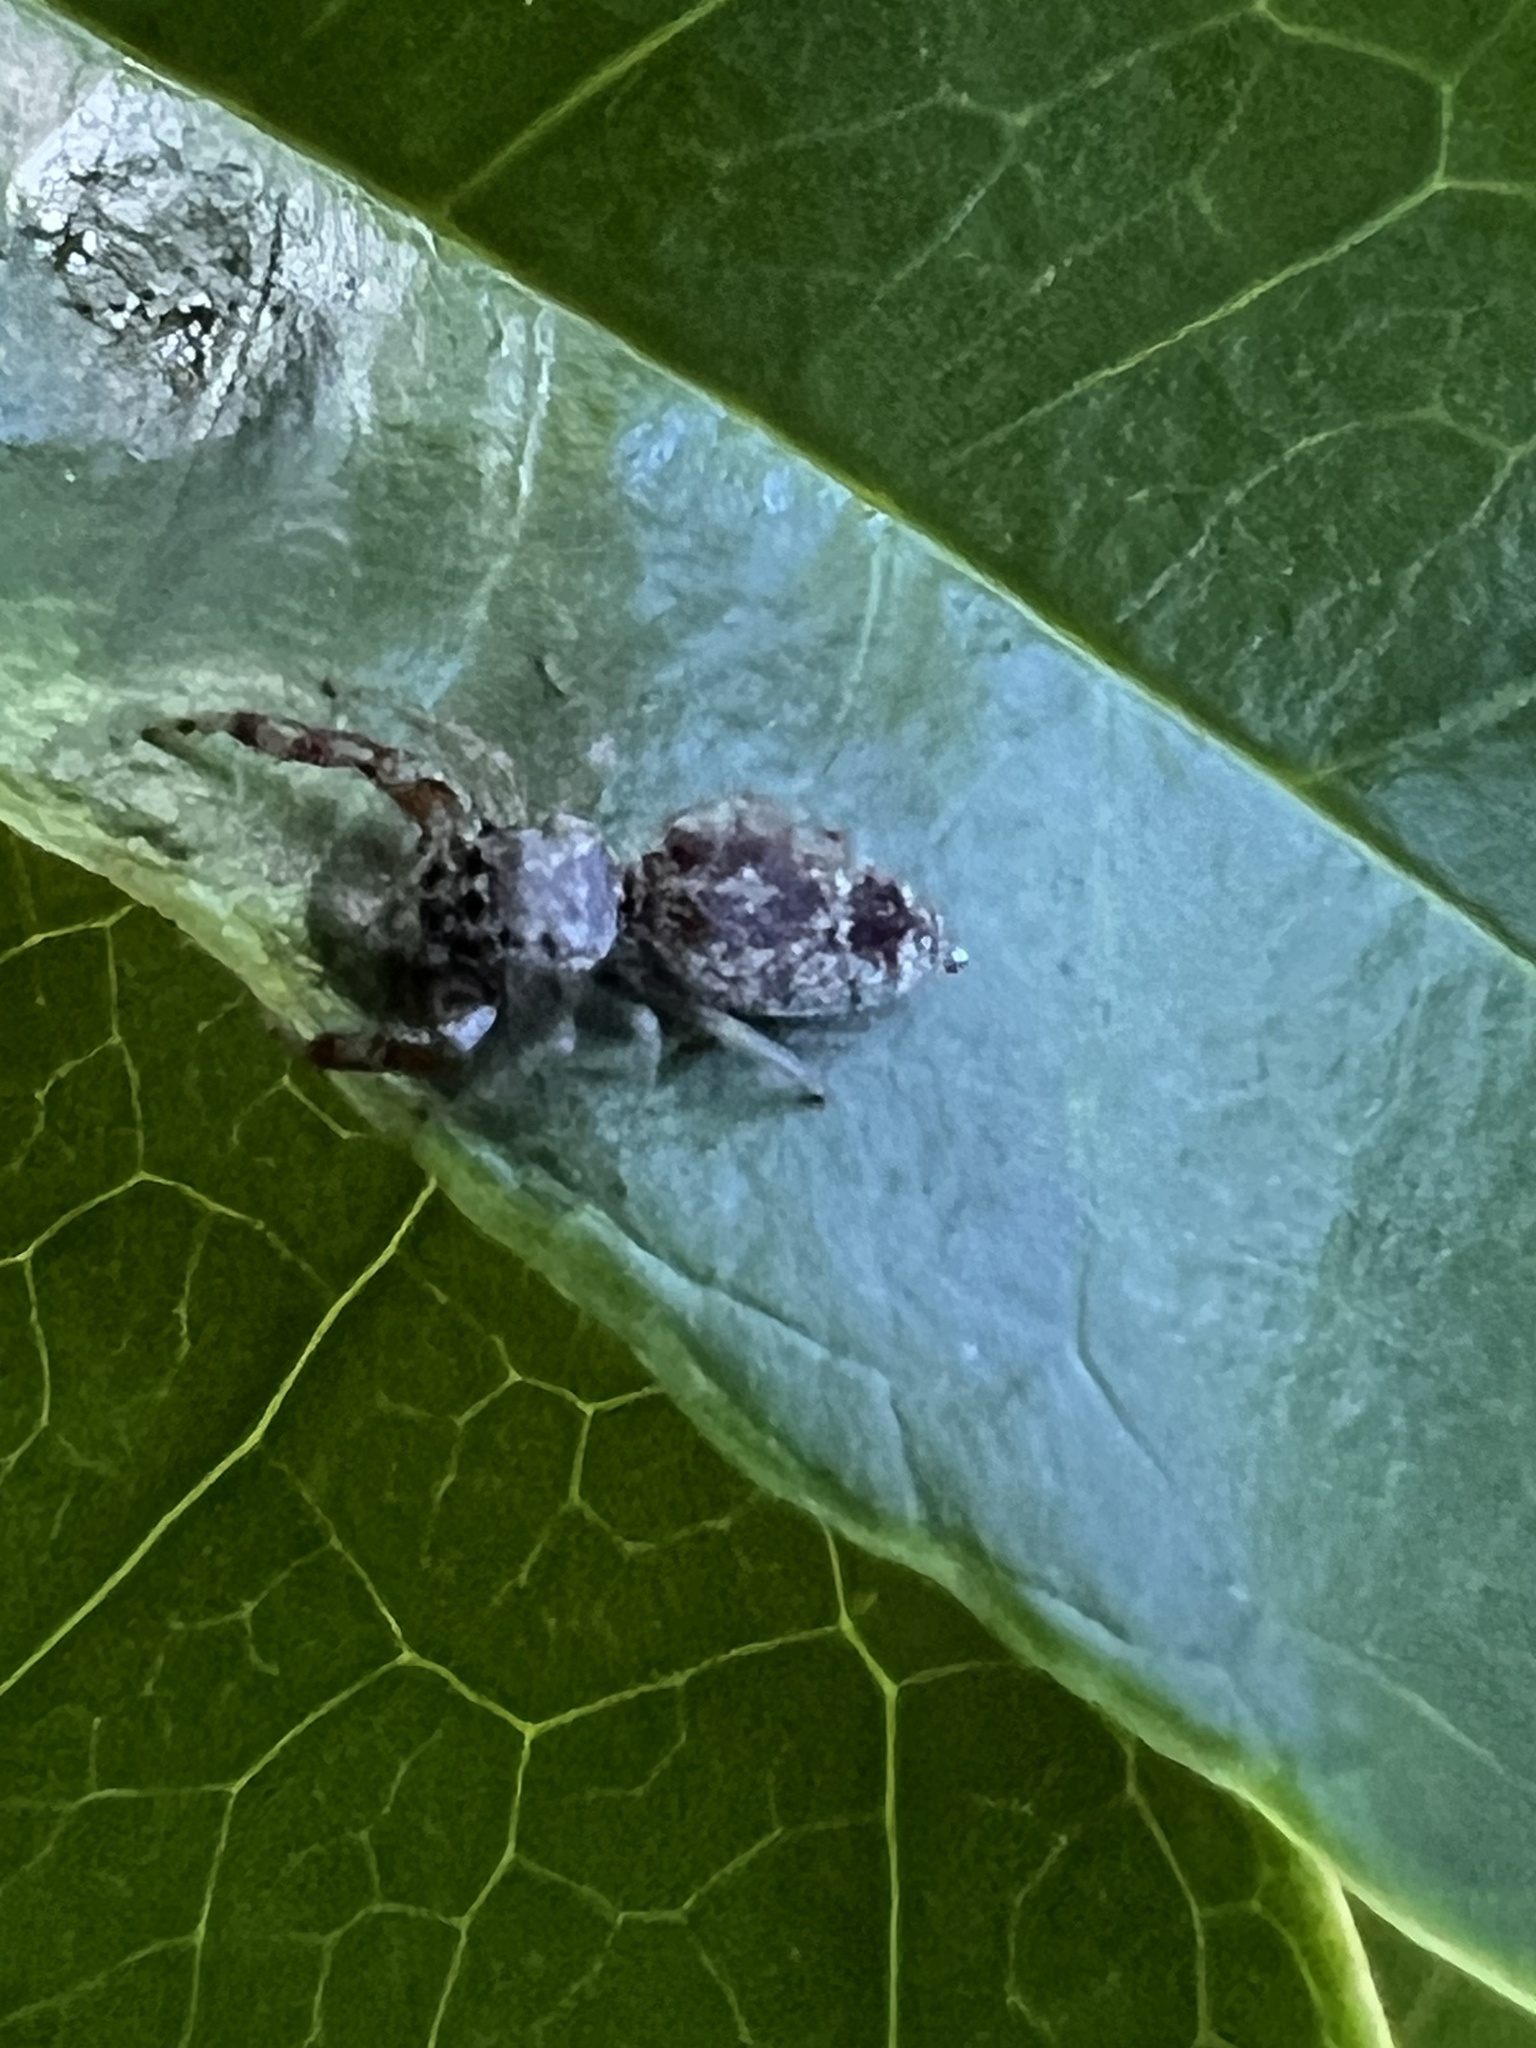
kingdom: Animalia
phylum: Arthropoda
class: Arachnida
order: Araneae
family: Salticidae
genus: Hentzia
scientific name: Hentzia palmarum
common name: Common hentz jumping spider
